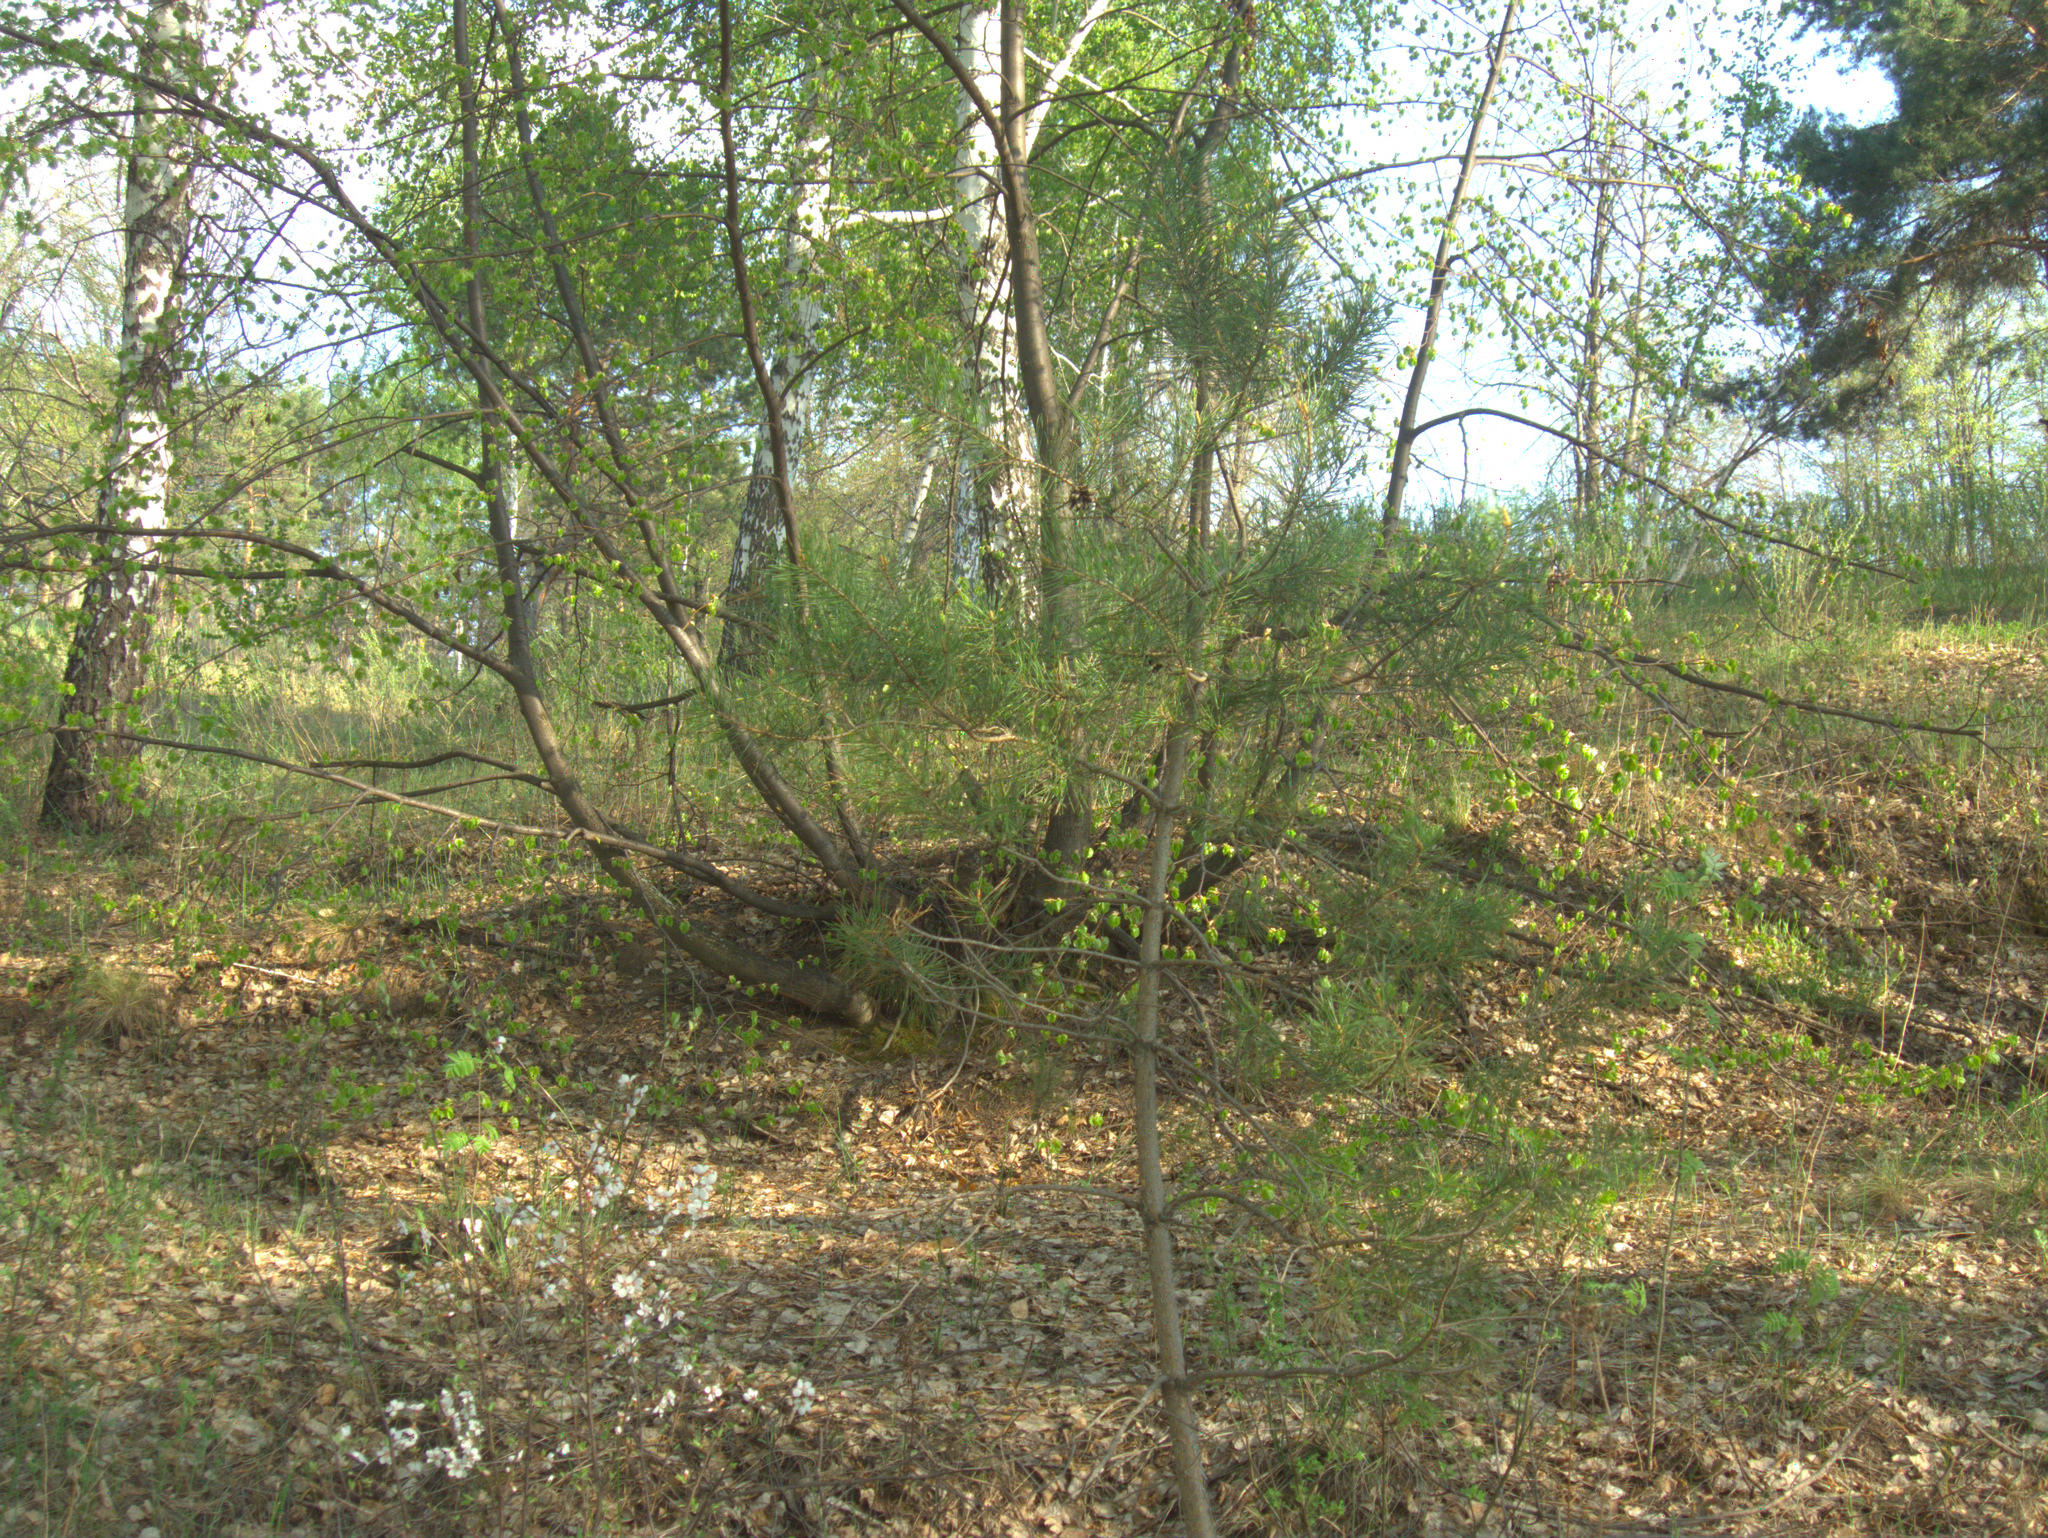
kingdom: Plantae
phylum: Tracheophyta
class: Pinopsida
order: Pinales
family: Pinaceae
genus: Pinus
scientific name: Pinus sylvestris
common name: Scots pine
